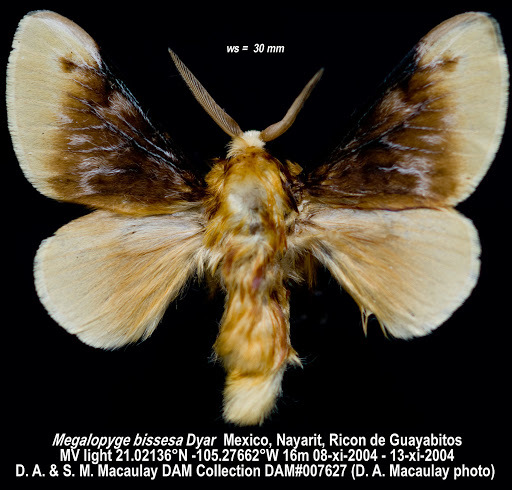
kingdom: Animalia
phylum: Arthropoda
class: Insecta
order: Lepidoptera
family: Megalopygidae
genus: Megalopyge
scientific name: Megalopyge opercularis
